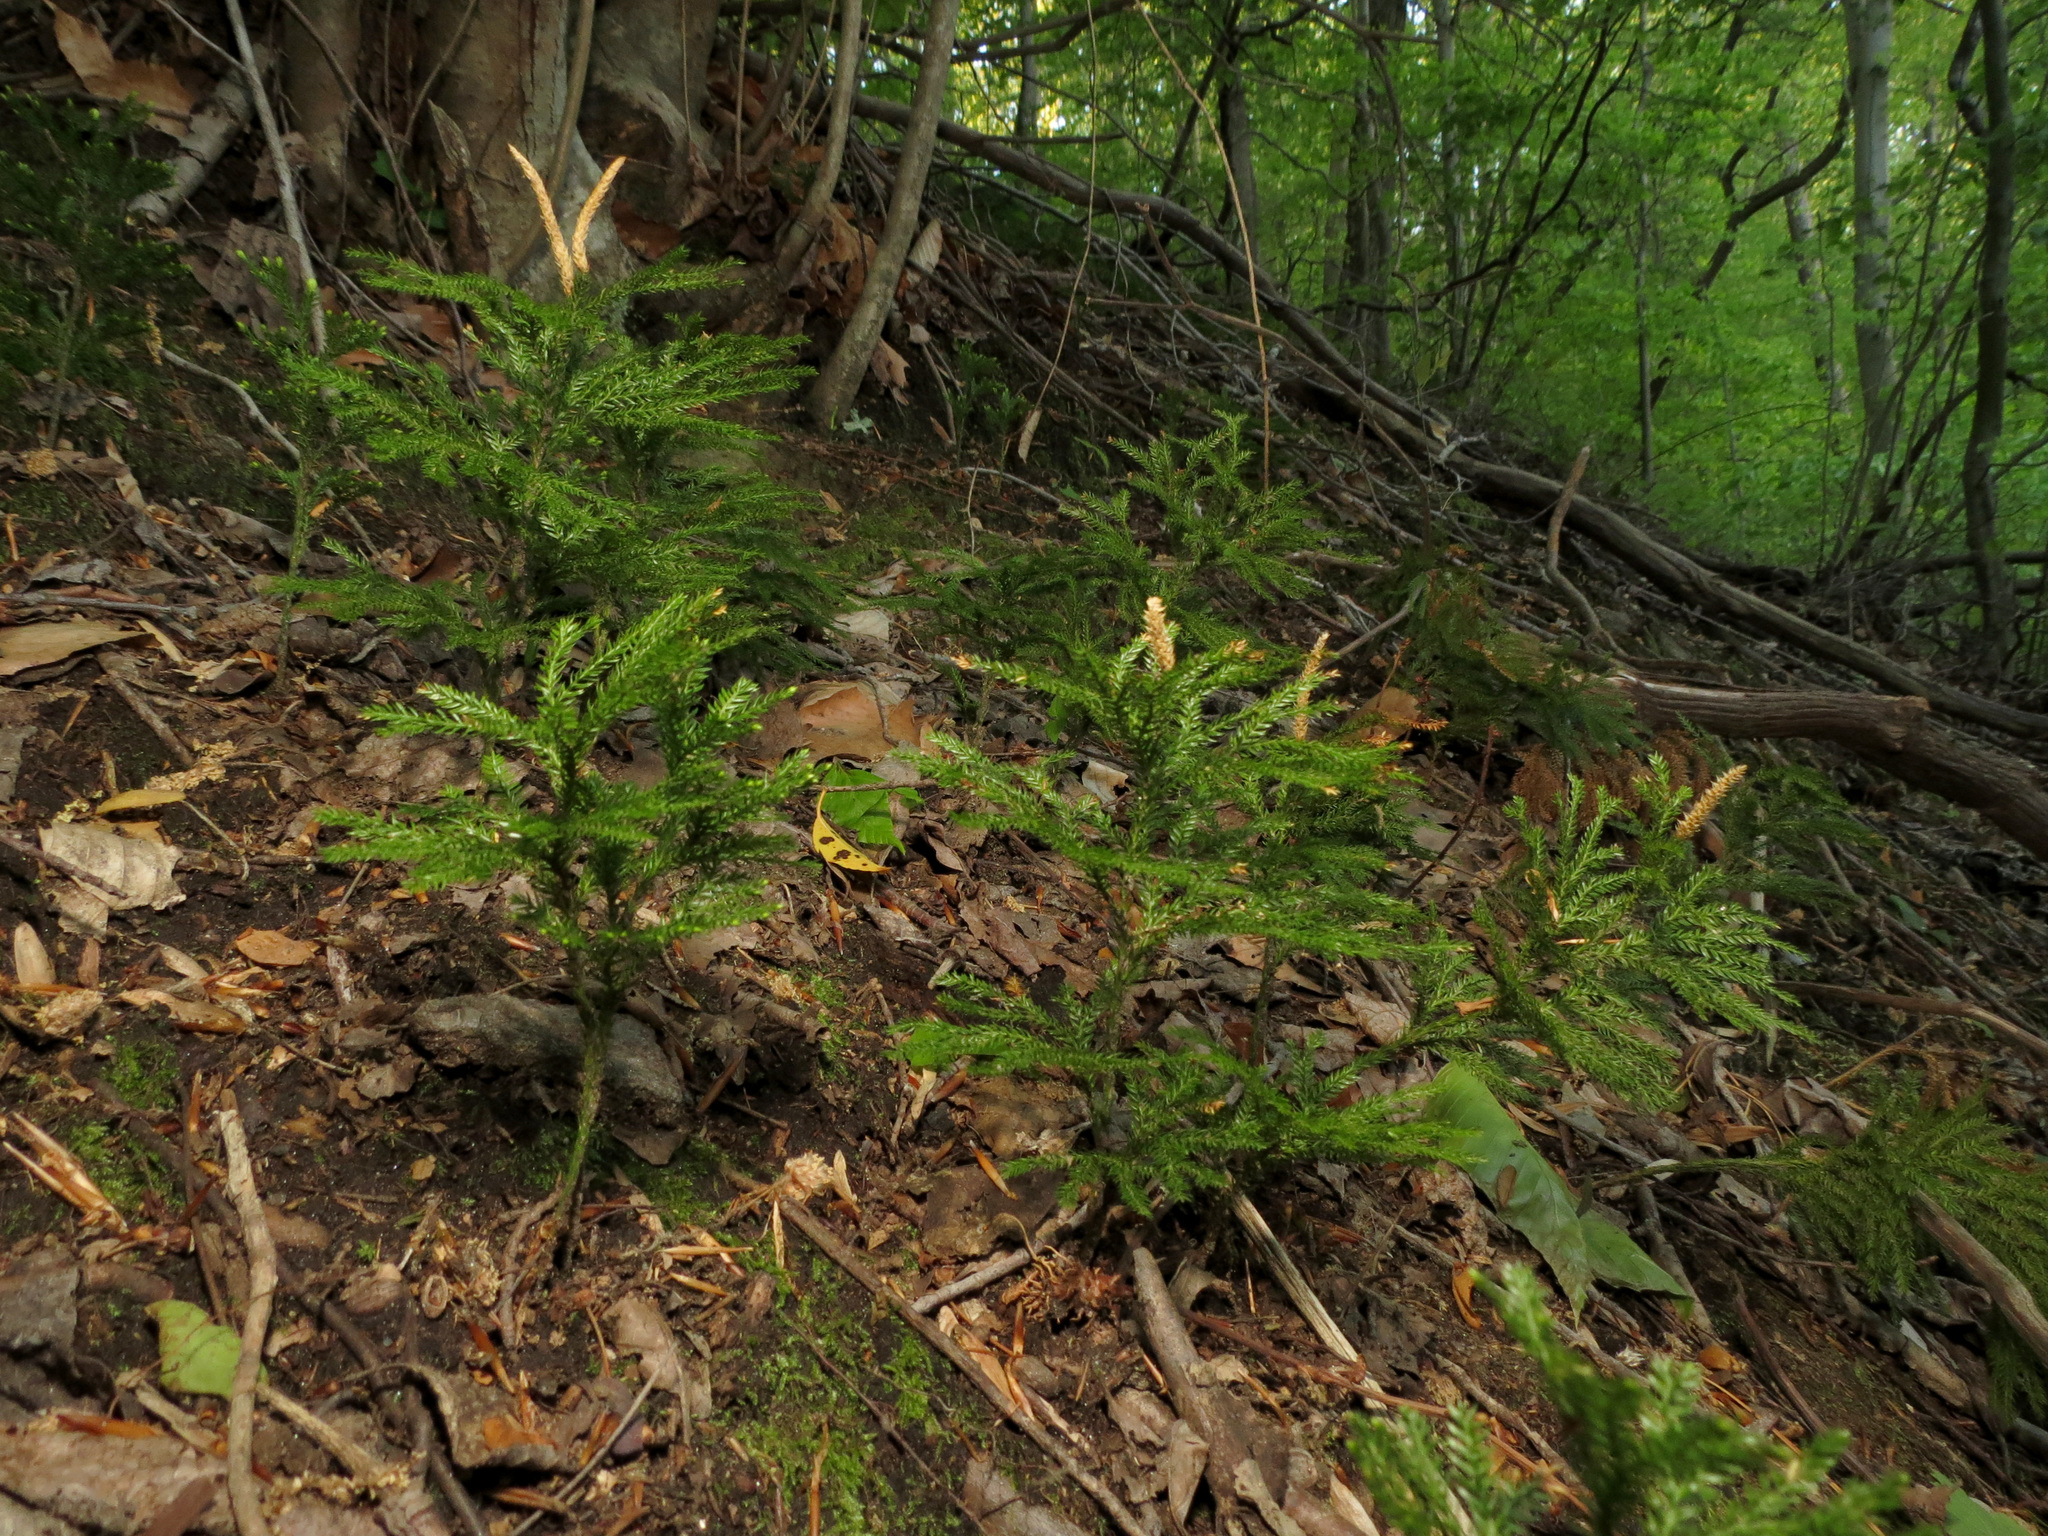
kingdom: Plantae
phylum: Tracheophyta
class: Lycopodiopsida
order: Lycopodiales
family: Lycopodiaceae
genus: Dendrolycopodium
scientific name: Dendrolycopodium obscurum
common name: Common ground-pine
